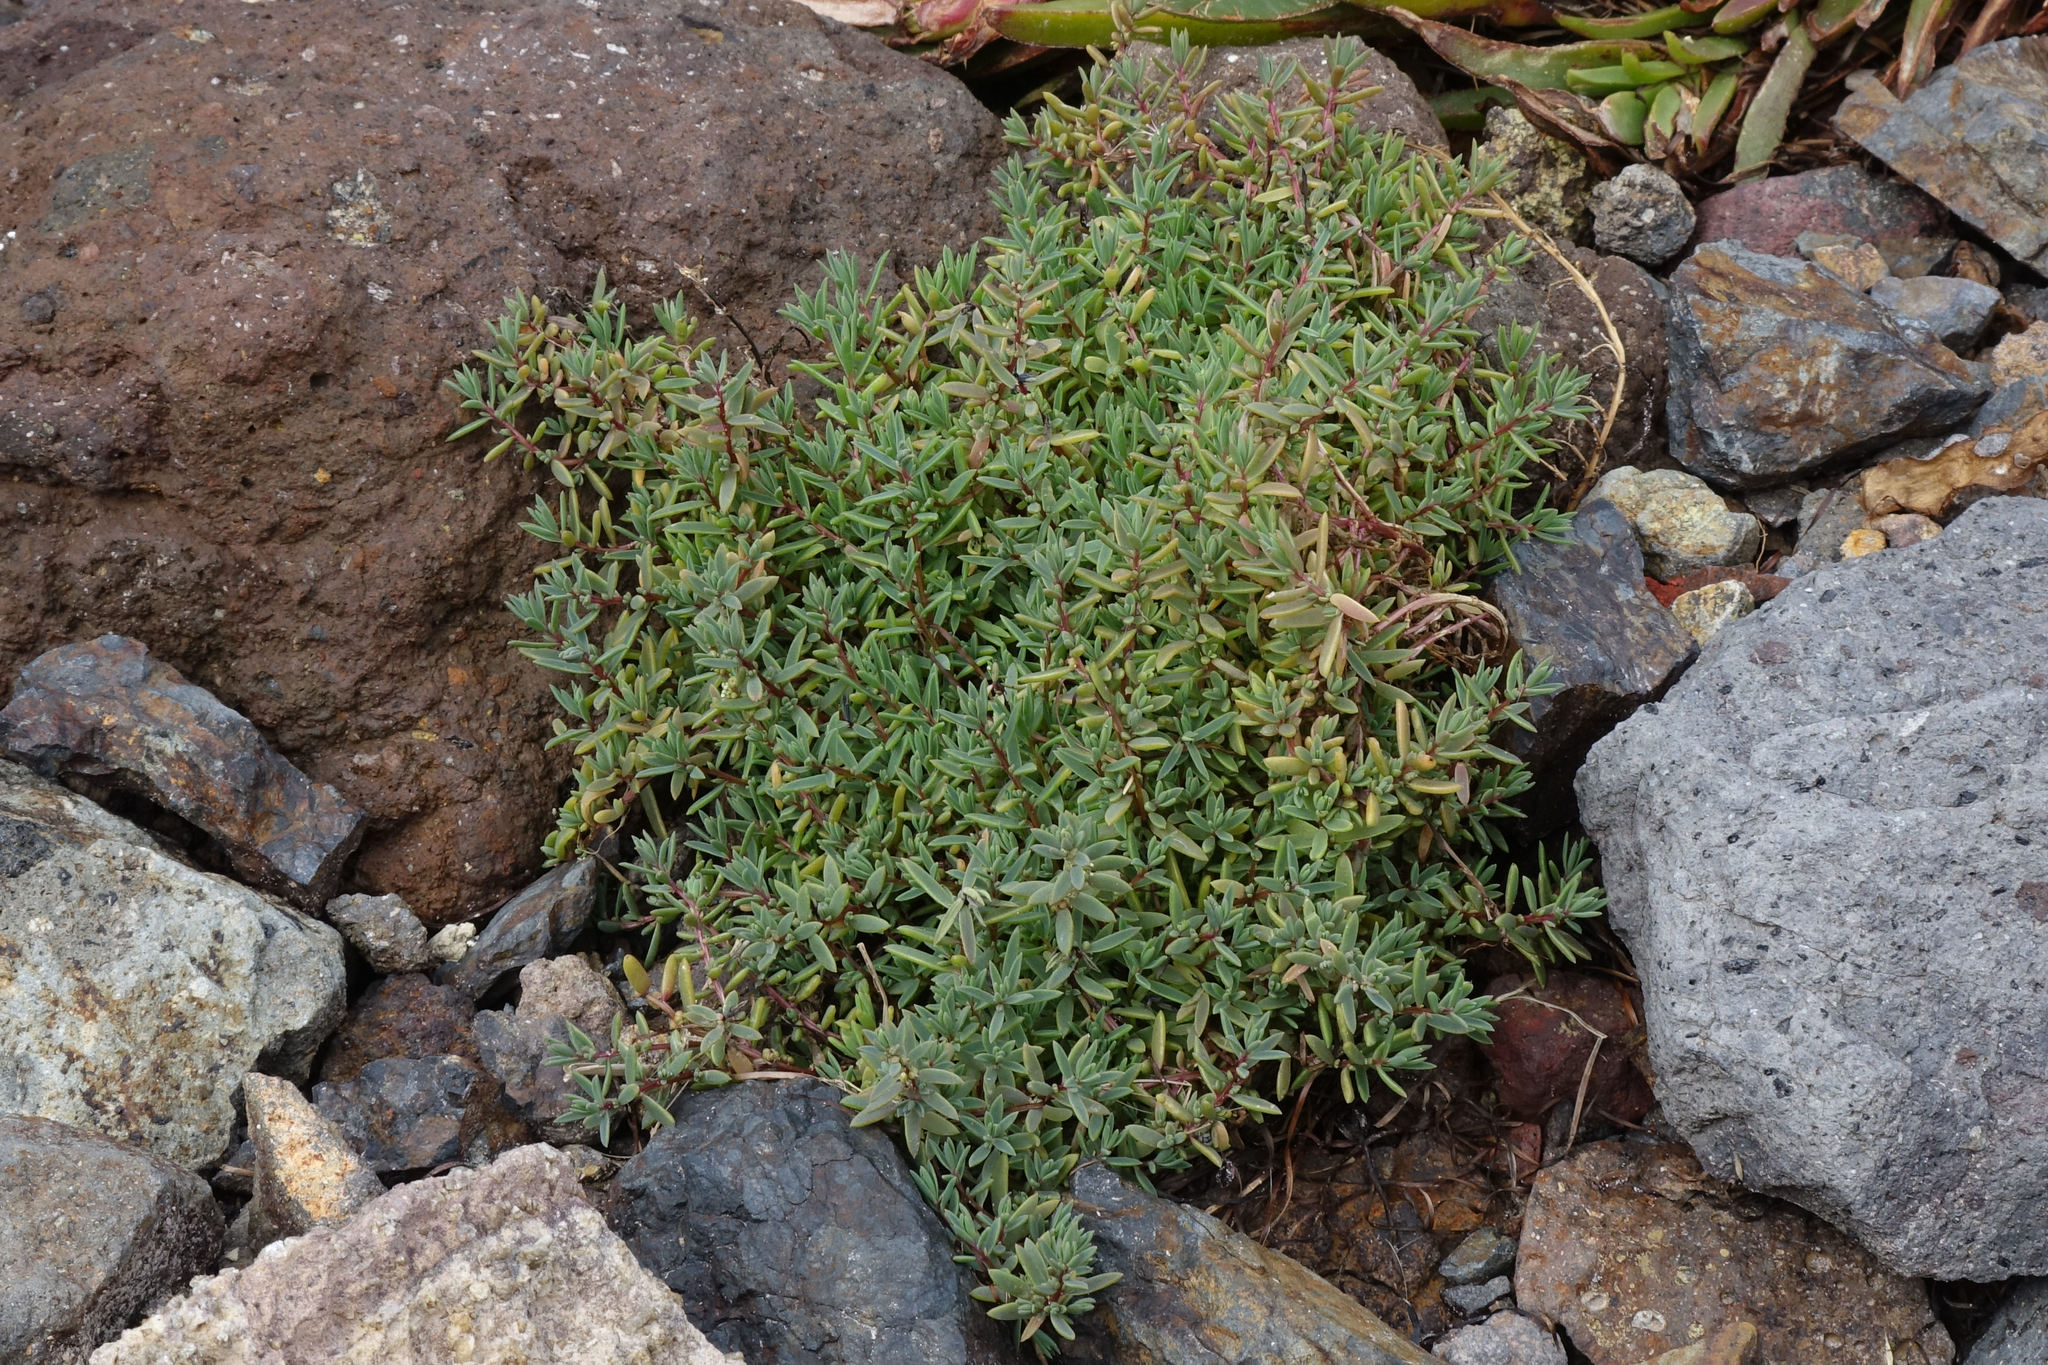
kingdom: Plantae
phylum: Tracheophyta
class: Magnoliopsida
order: Caryophyllales
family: Amaranthaceae
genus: Suaeda
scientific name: Suaeda novae-zelandiae
